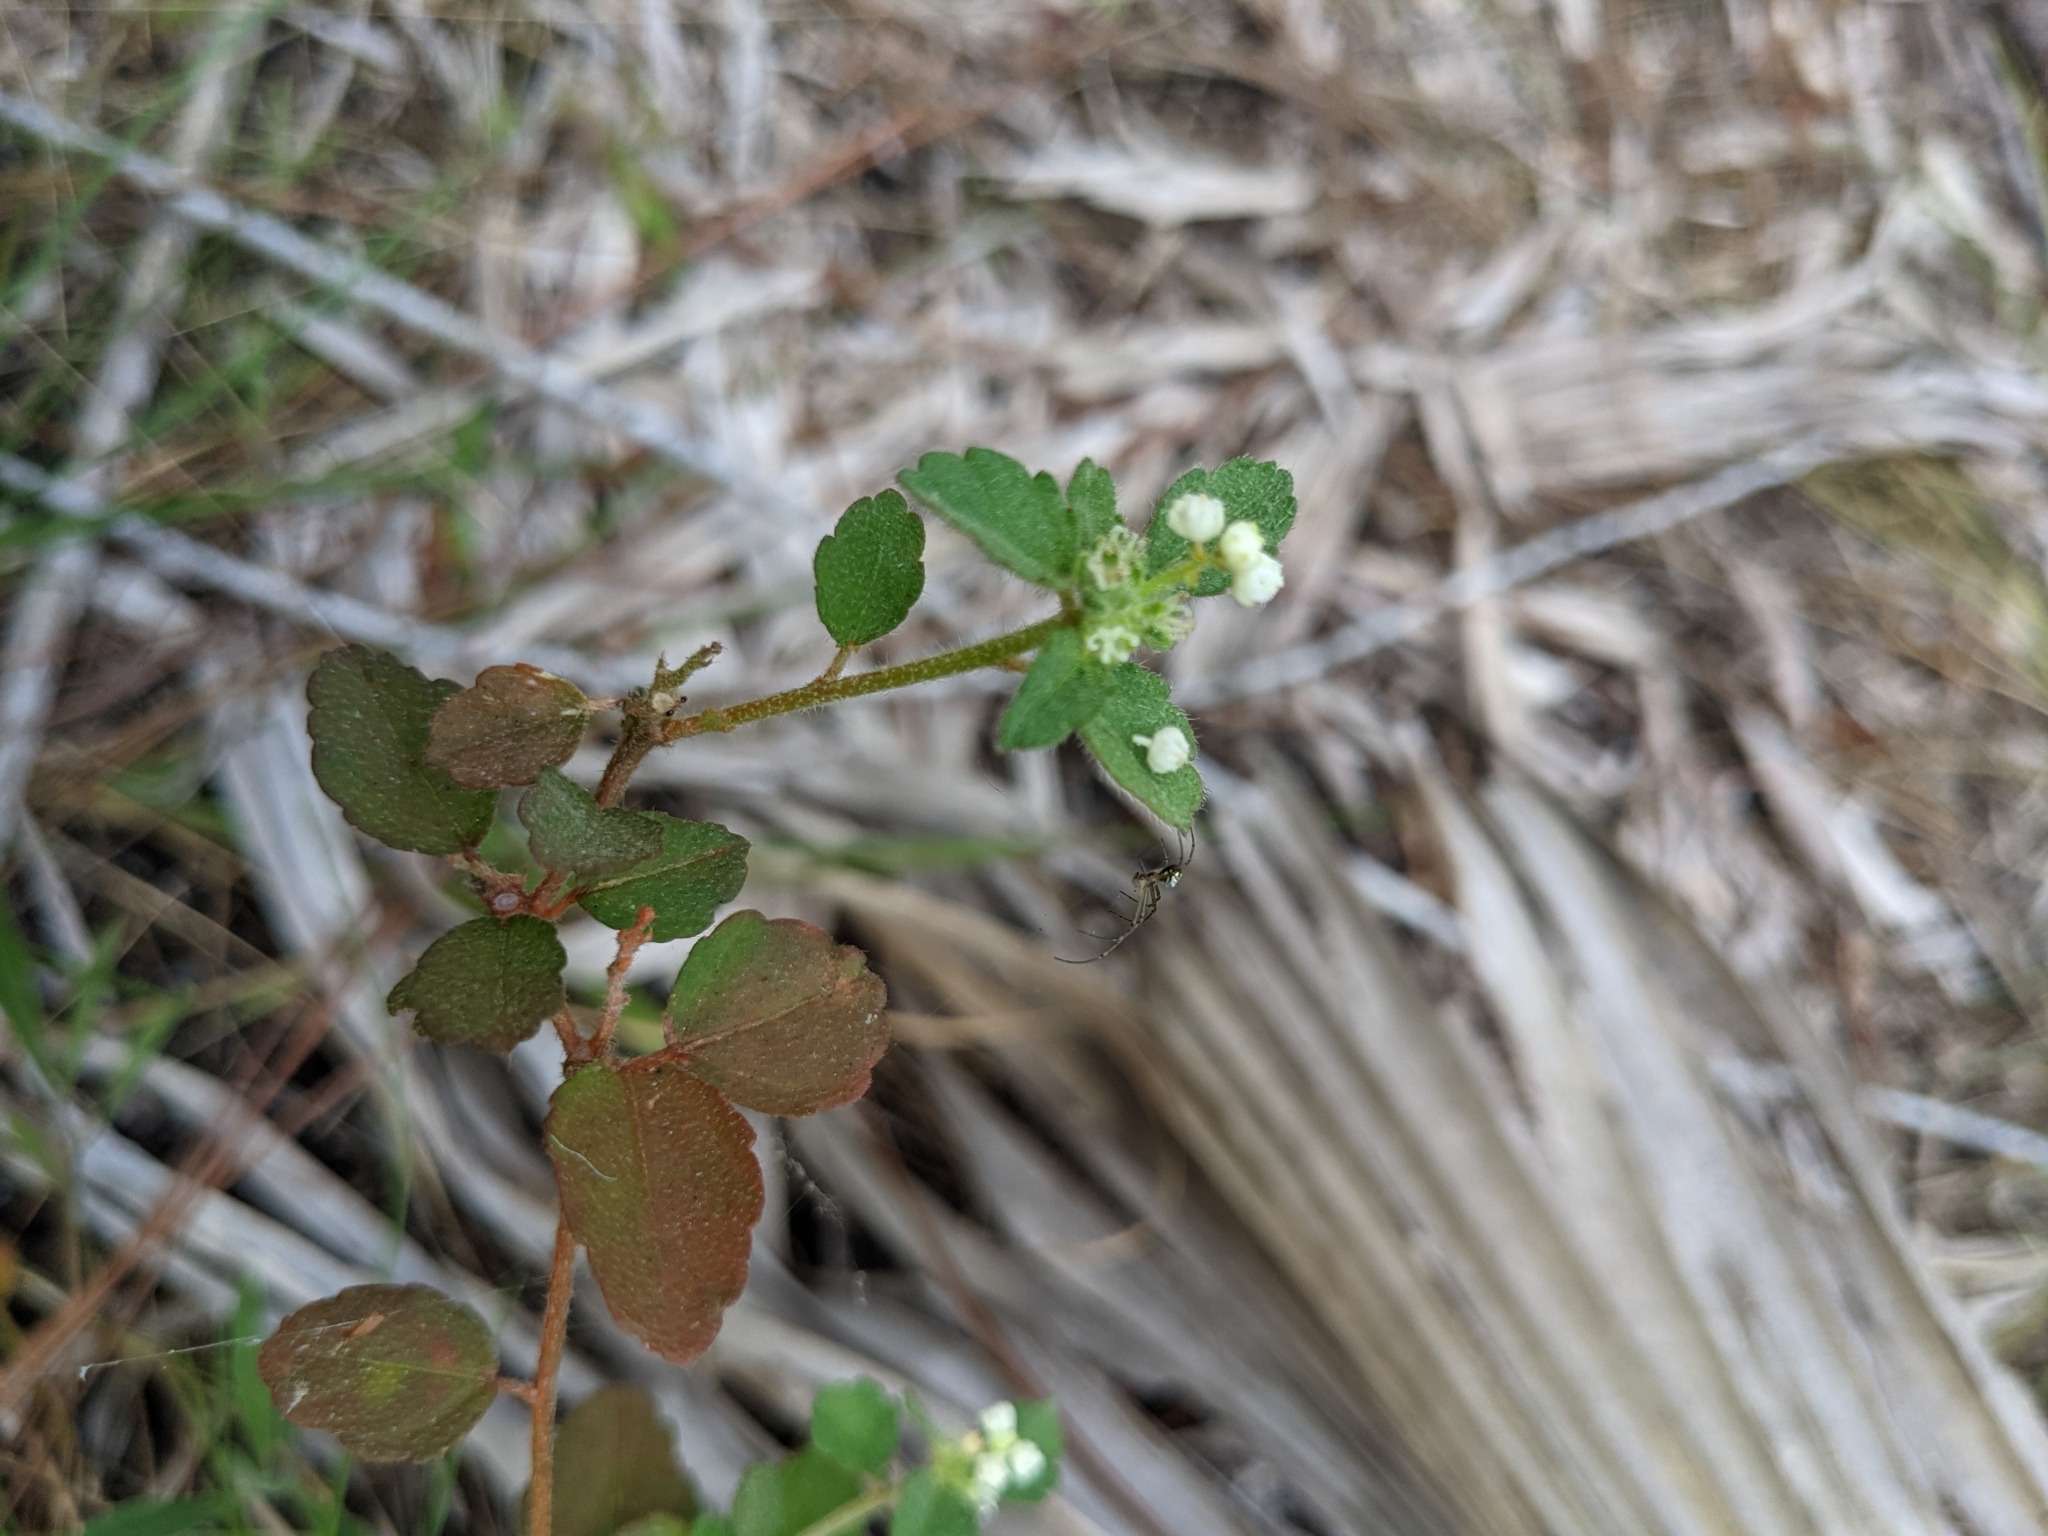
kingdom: Plantae
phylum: Tracheophyta
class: Magnoliopsida
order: Malpighiales
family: Euphorbiaceae
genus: Croton
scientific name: Croton glandulosus
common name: Tropic croton
